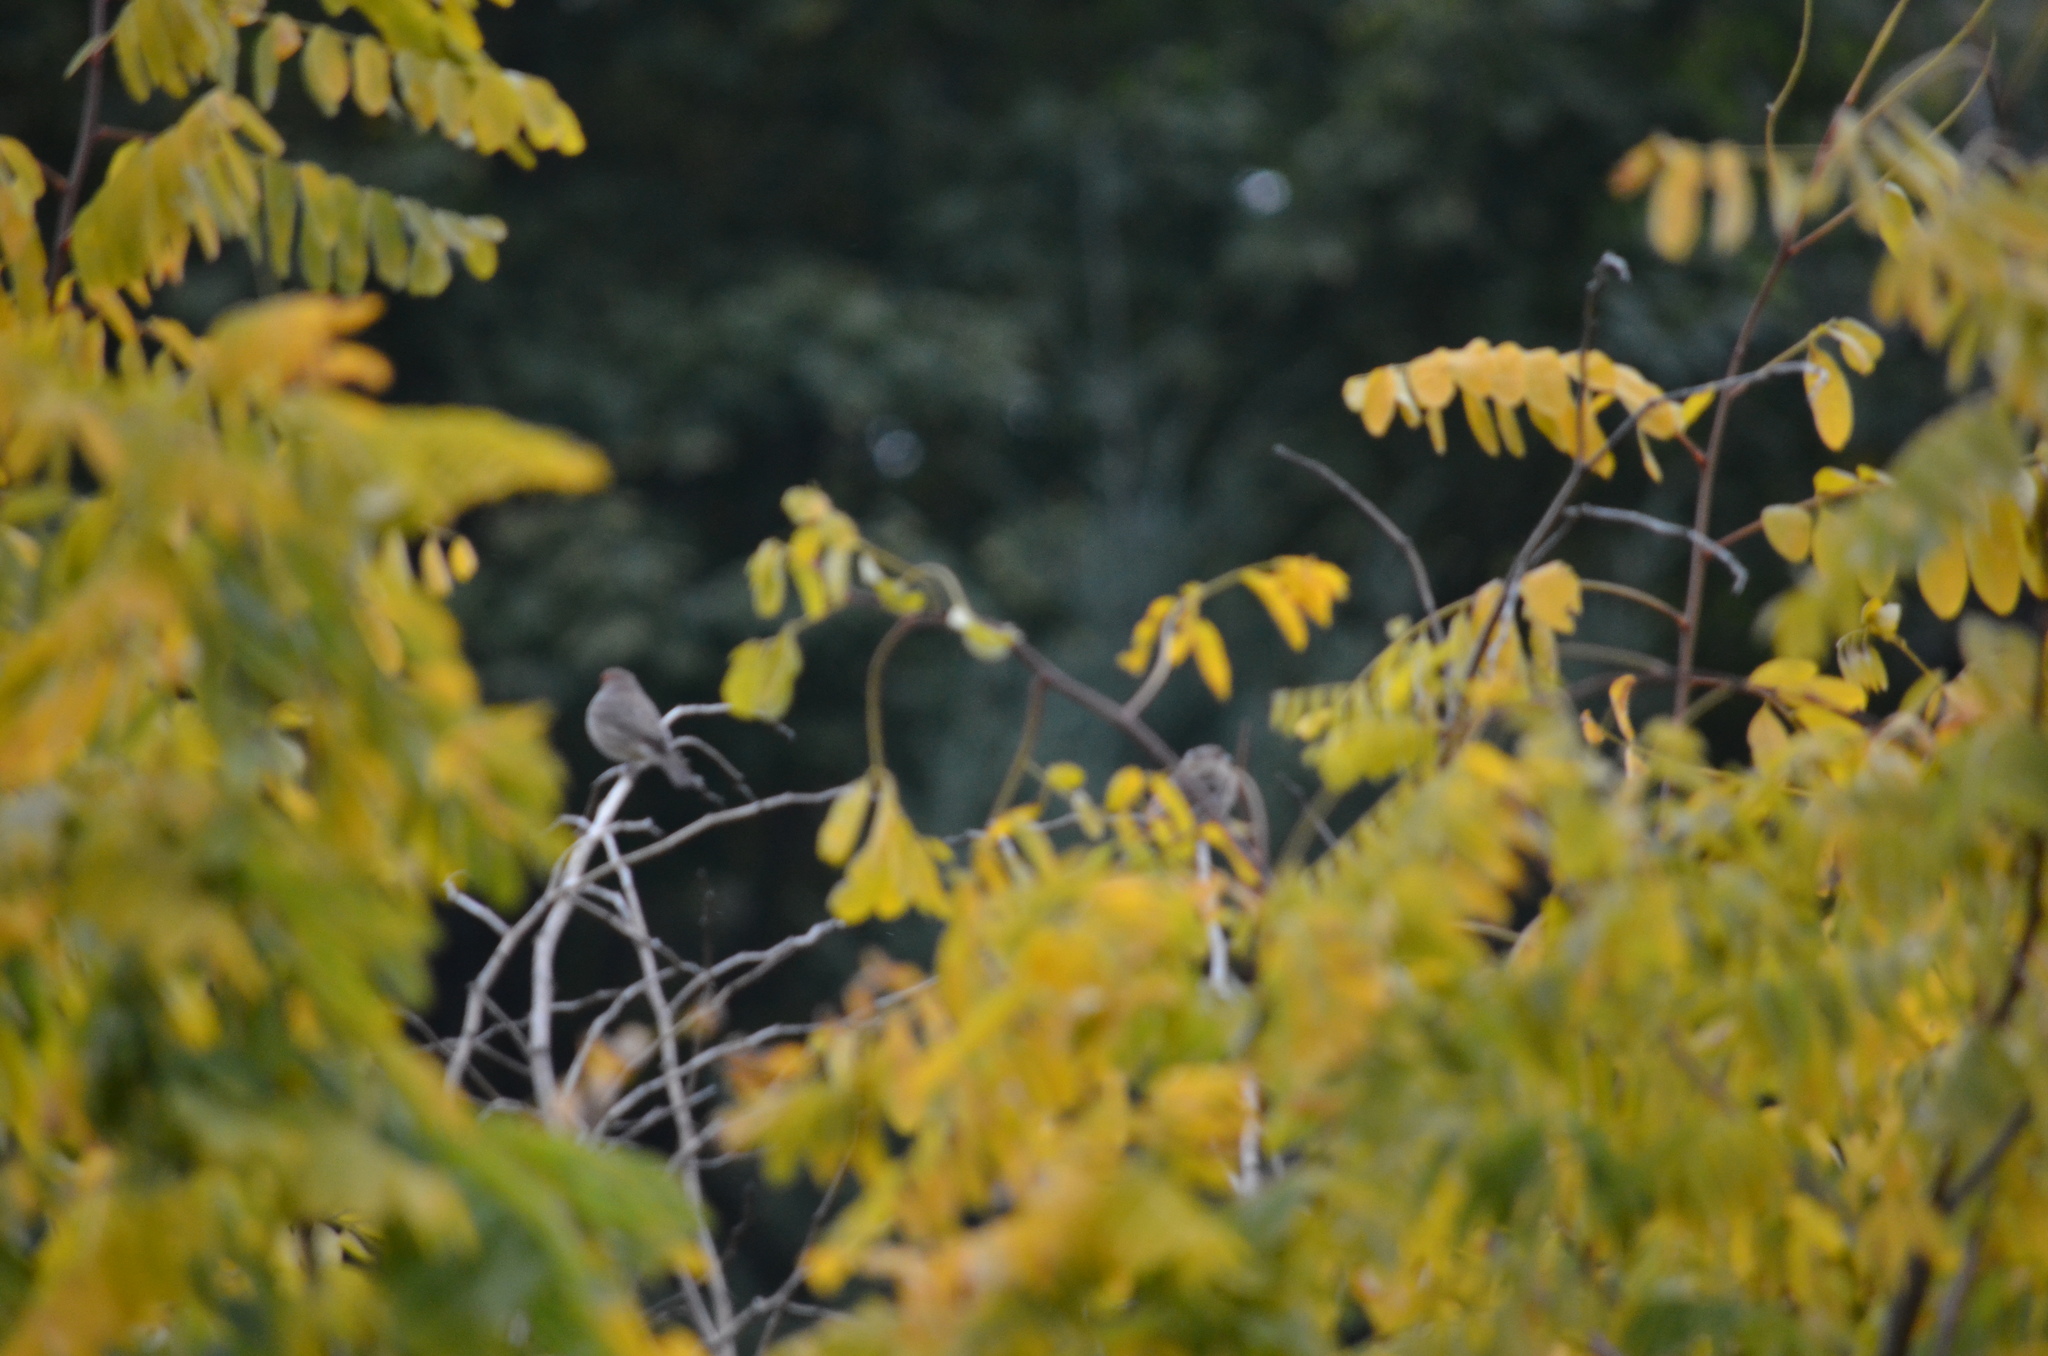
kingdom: Animalia
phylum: Chordata
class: Aves
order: Passeriformes
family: Fringillidae
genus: Haemorhous
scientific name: Haemorhous mexicanus
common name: House finch
